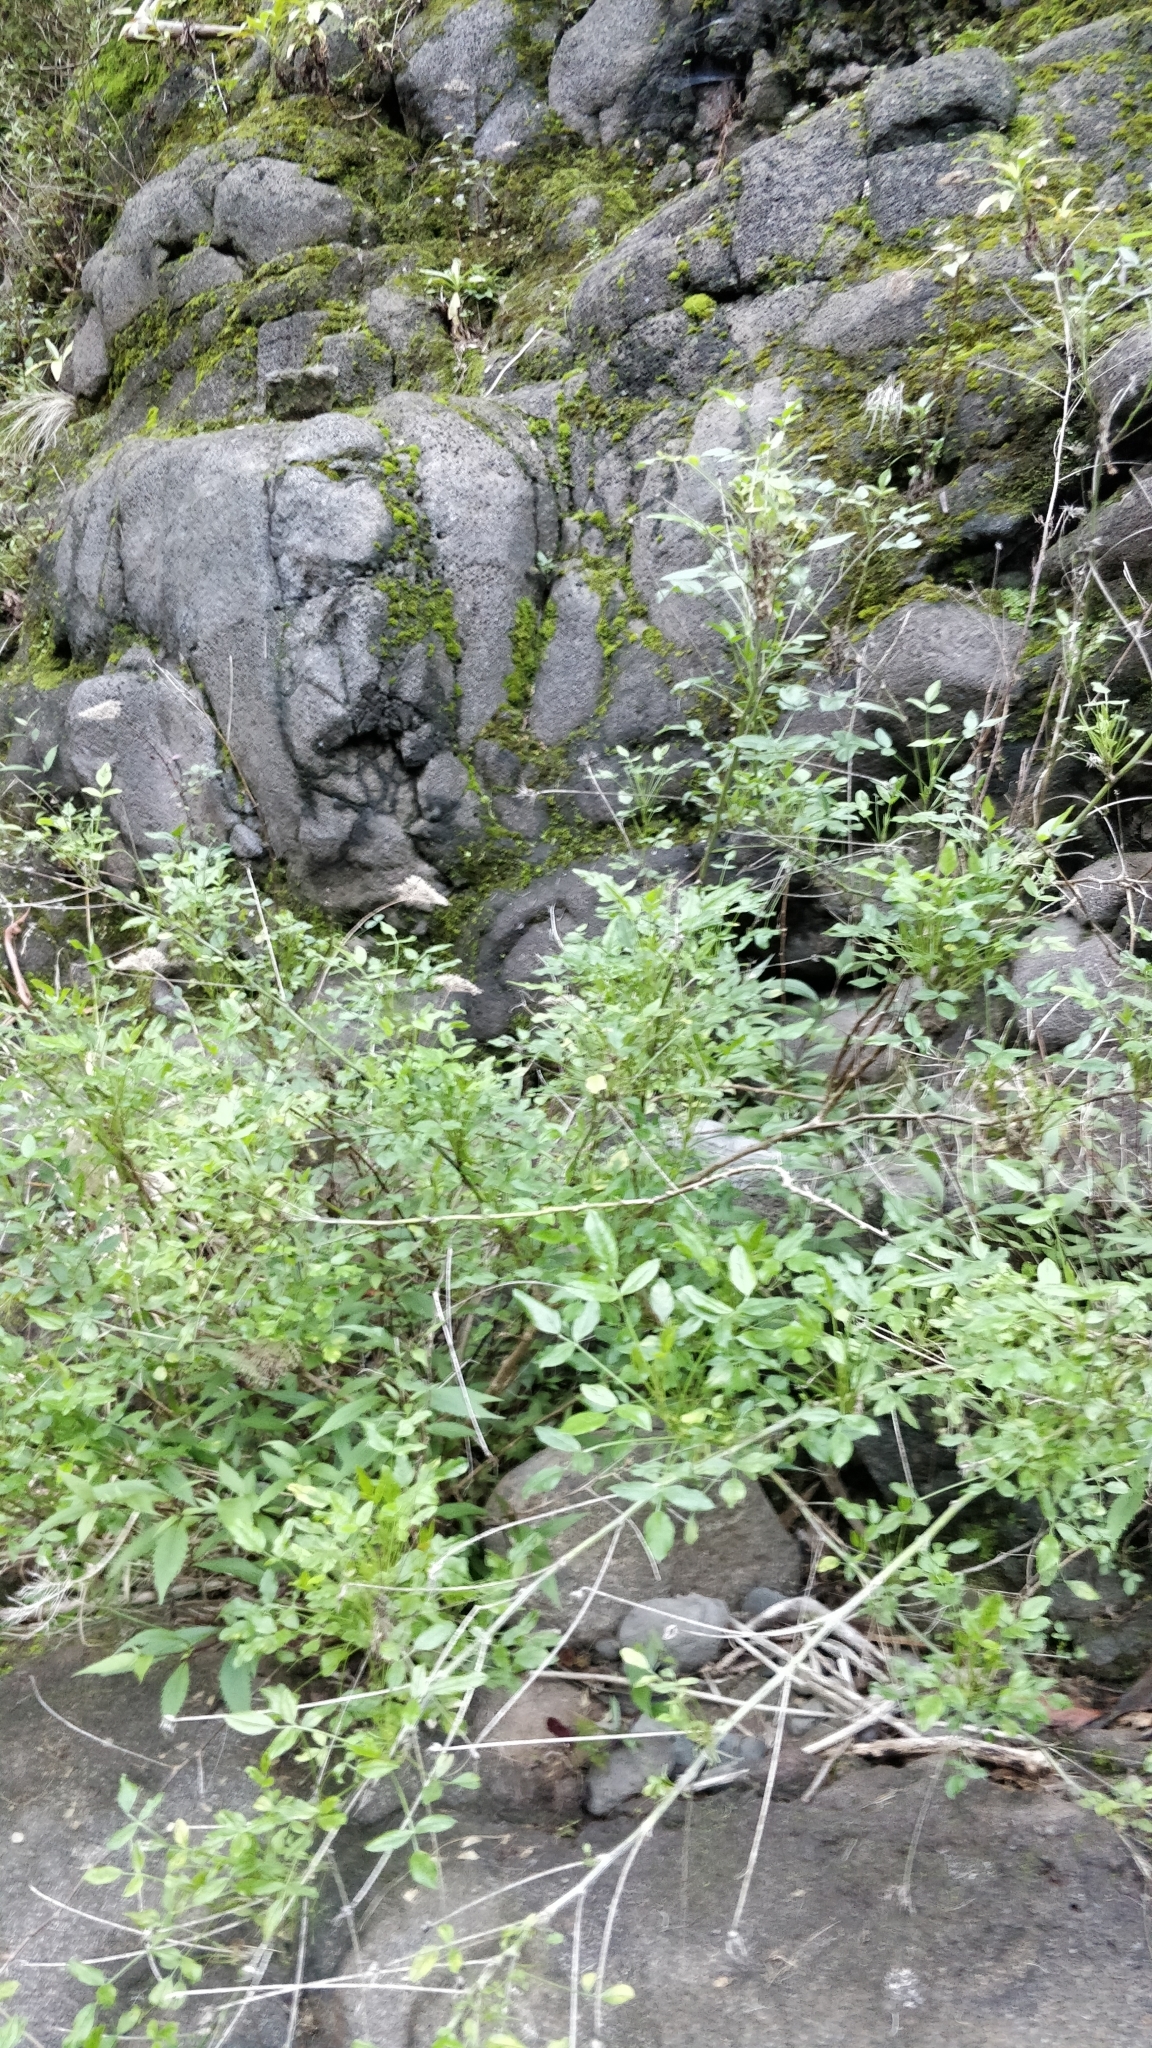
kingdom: Plantae
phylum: Tracheophyta
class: Magnoliopsida
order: Fabales
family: Fabaceae
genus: Bituminaria
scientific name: Bituminaria bituminosa
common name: Arabian pea
